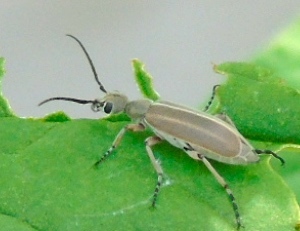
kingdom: Animalia
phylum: Arthropoda
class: Insecta
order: Coleoptera
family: Meloidae
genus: Epicauta
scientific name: Epicauta cupraeola
